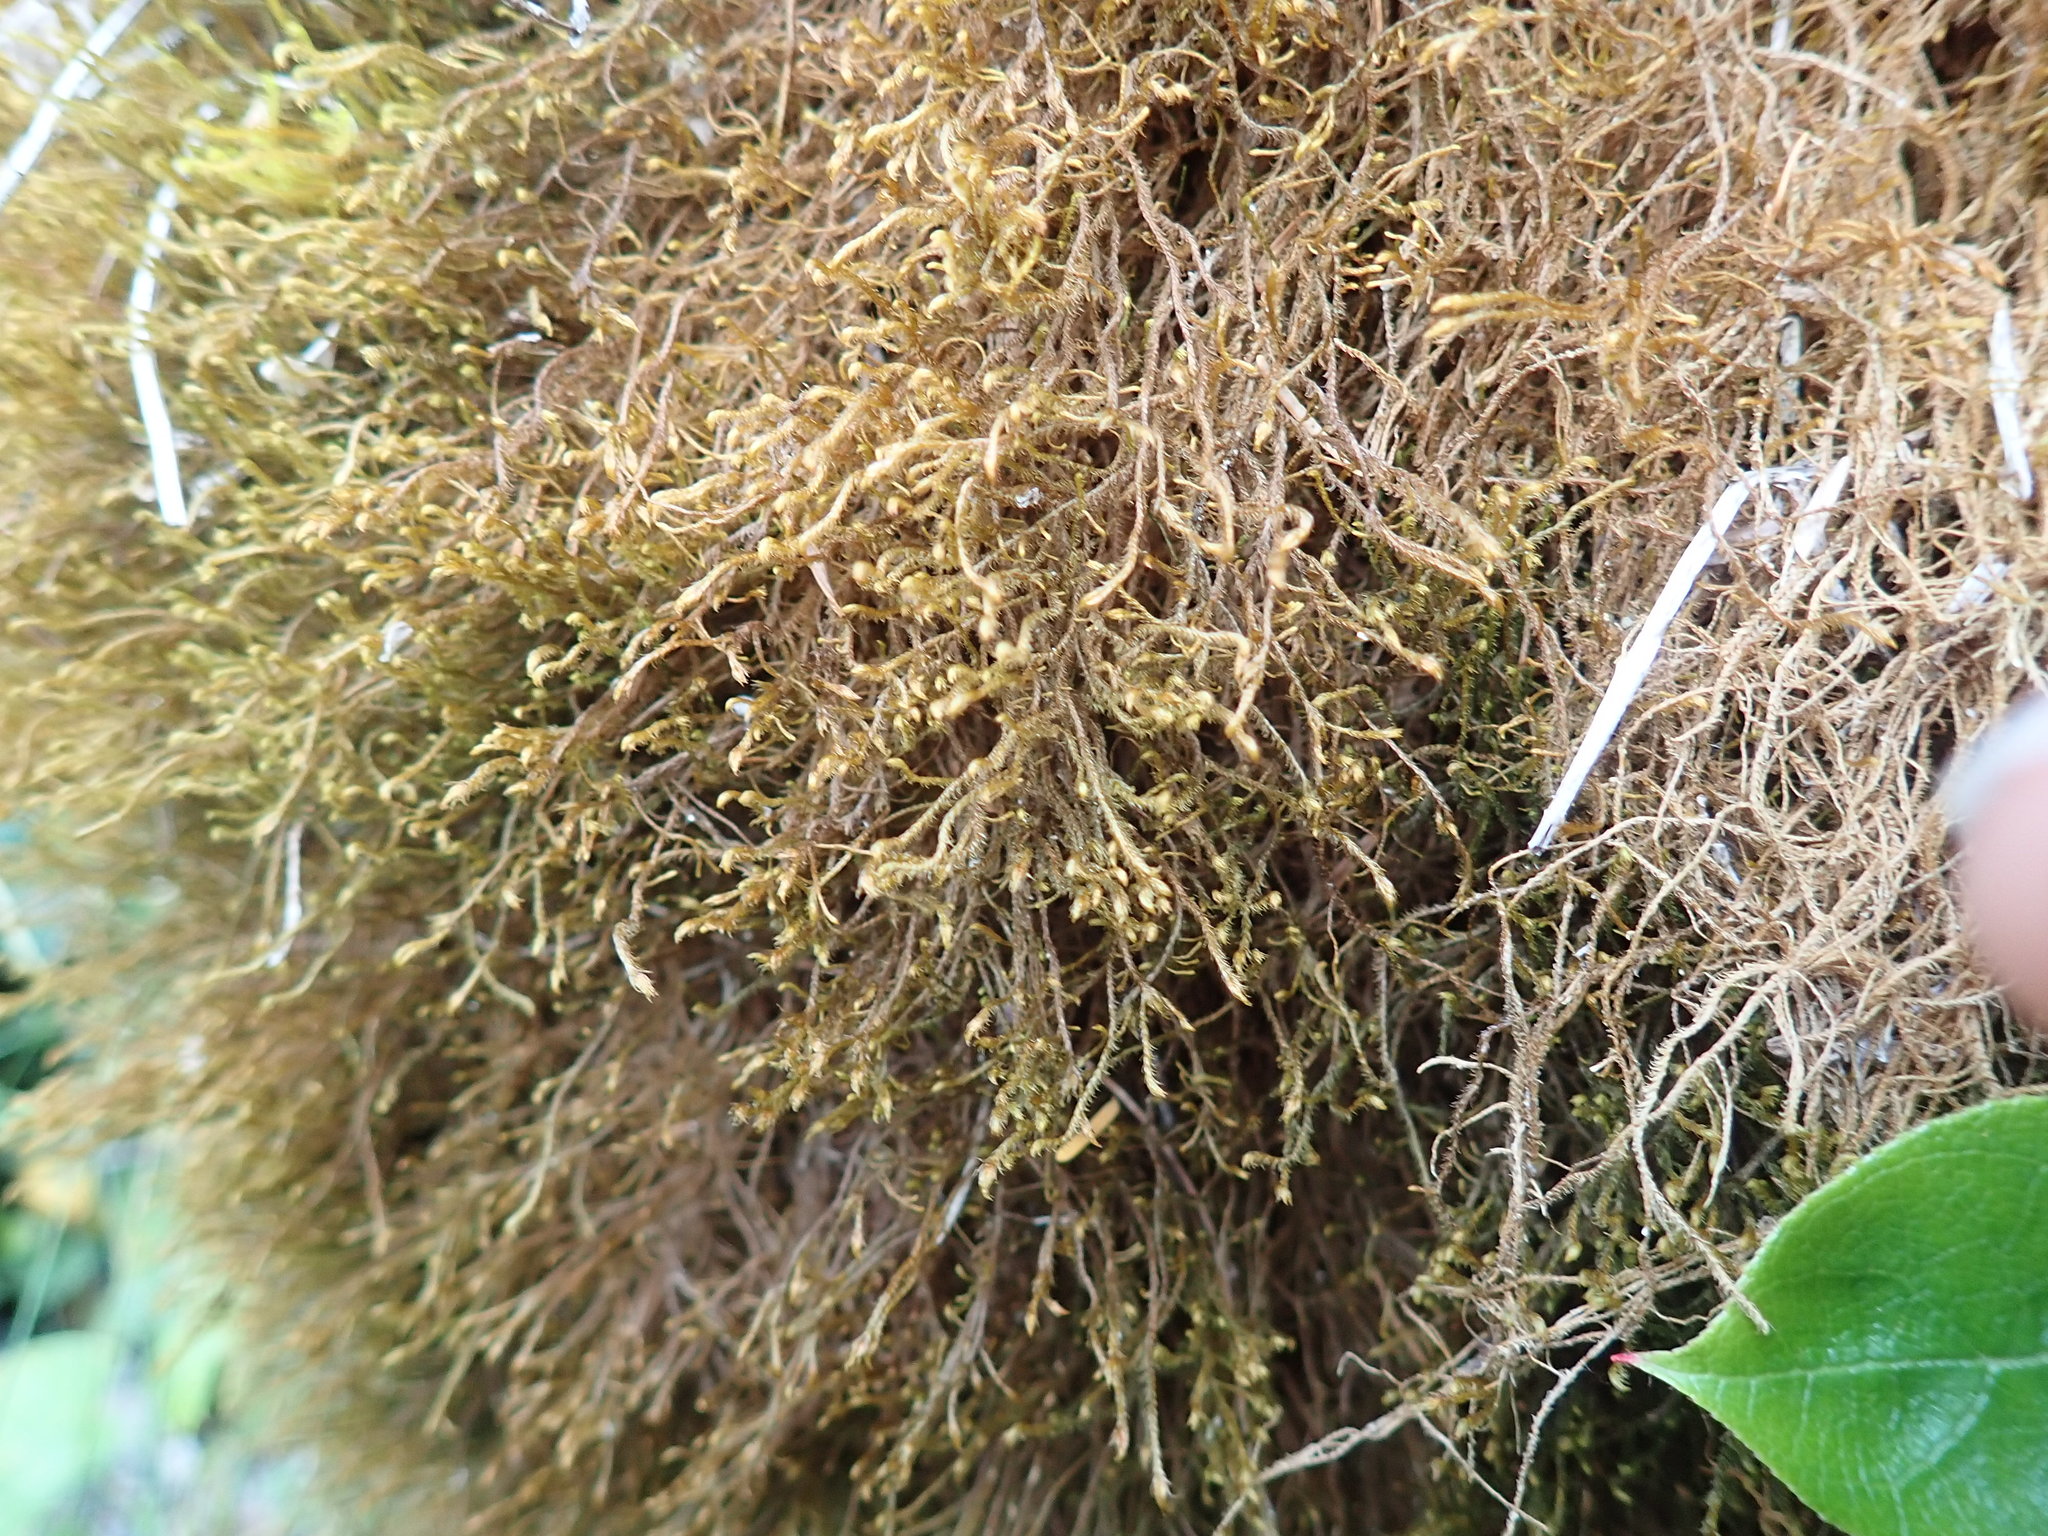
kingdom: Plantae
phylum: Marchantiophyta
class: Jungermanniopsida
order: Jungermanniales
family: Herbertaceae
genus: Herbertus
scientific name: Herbertus aduncus
